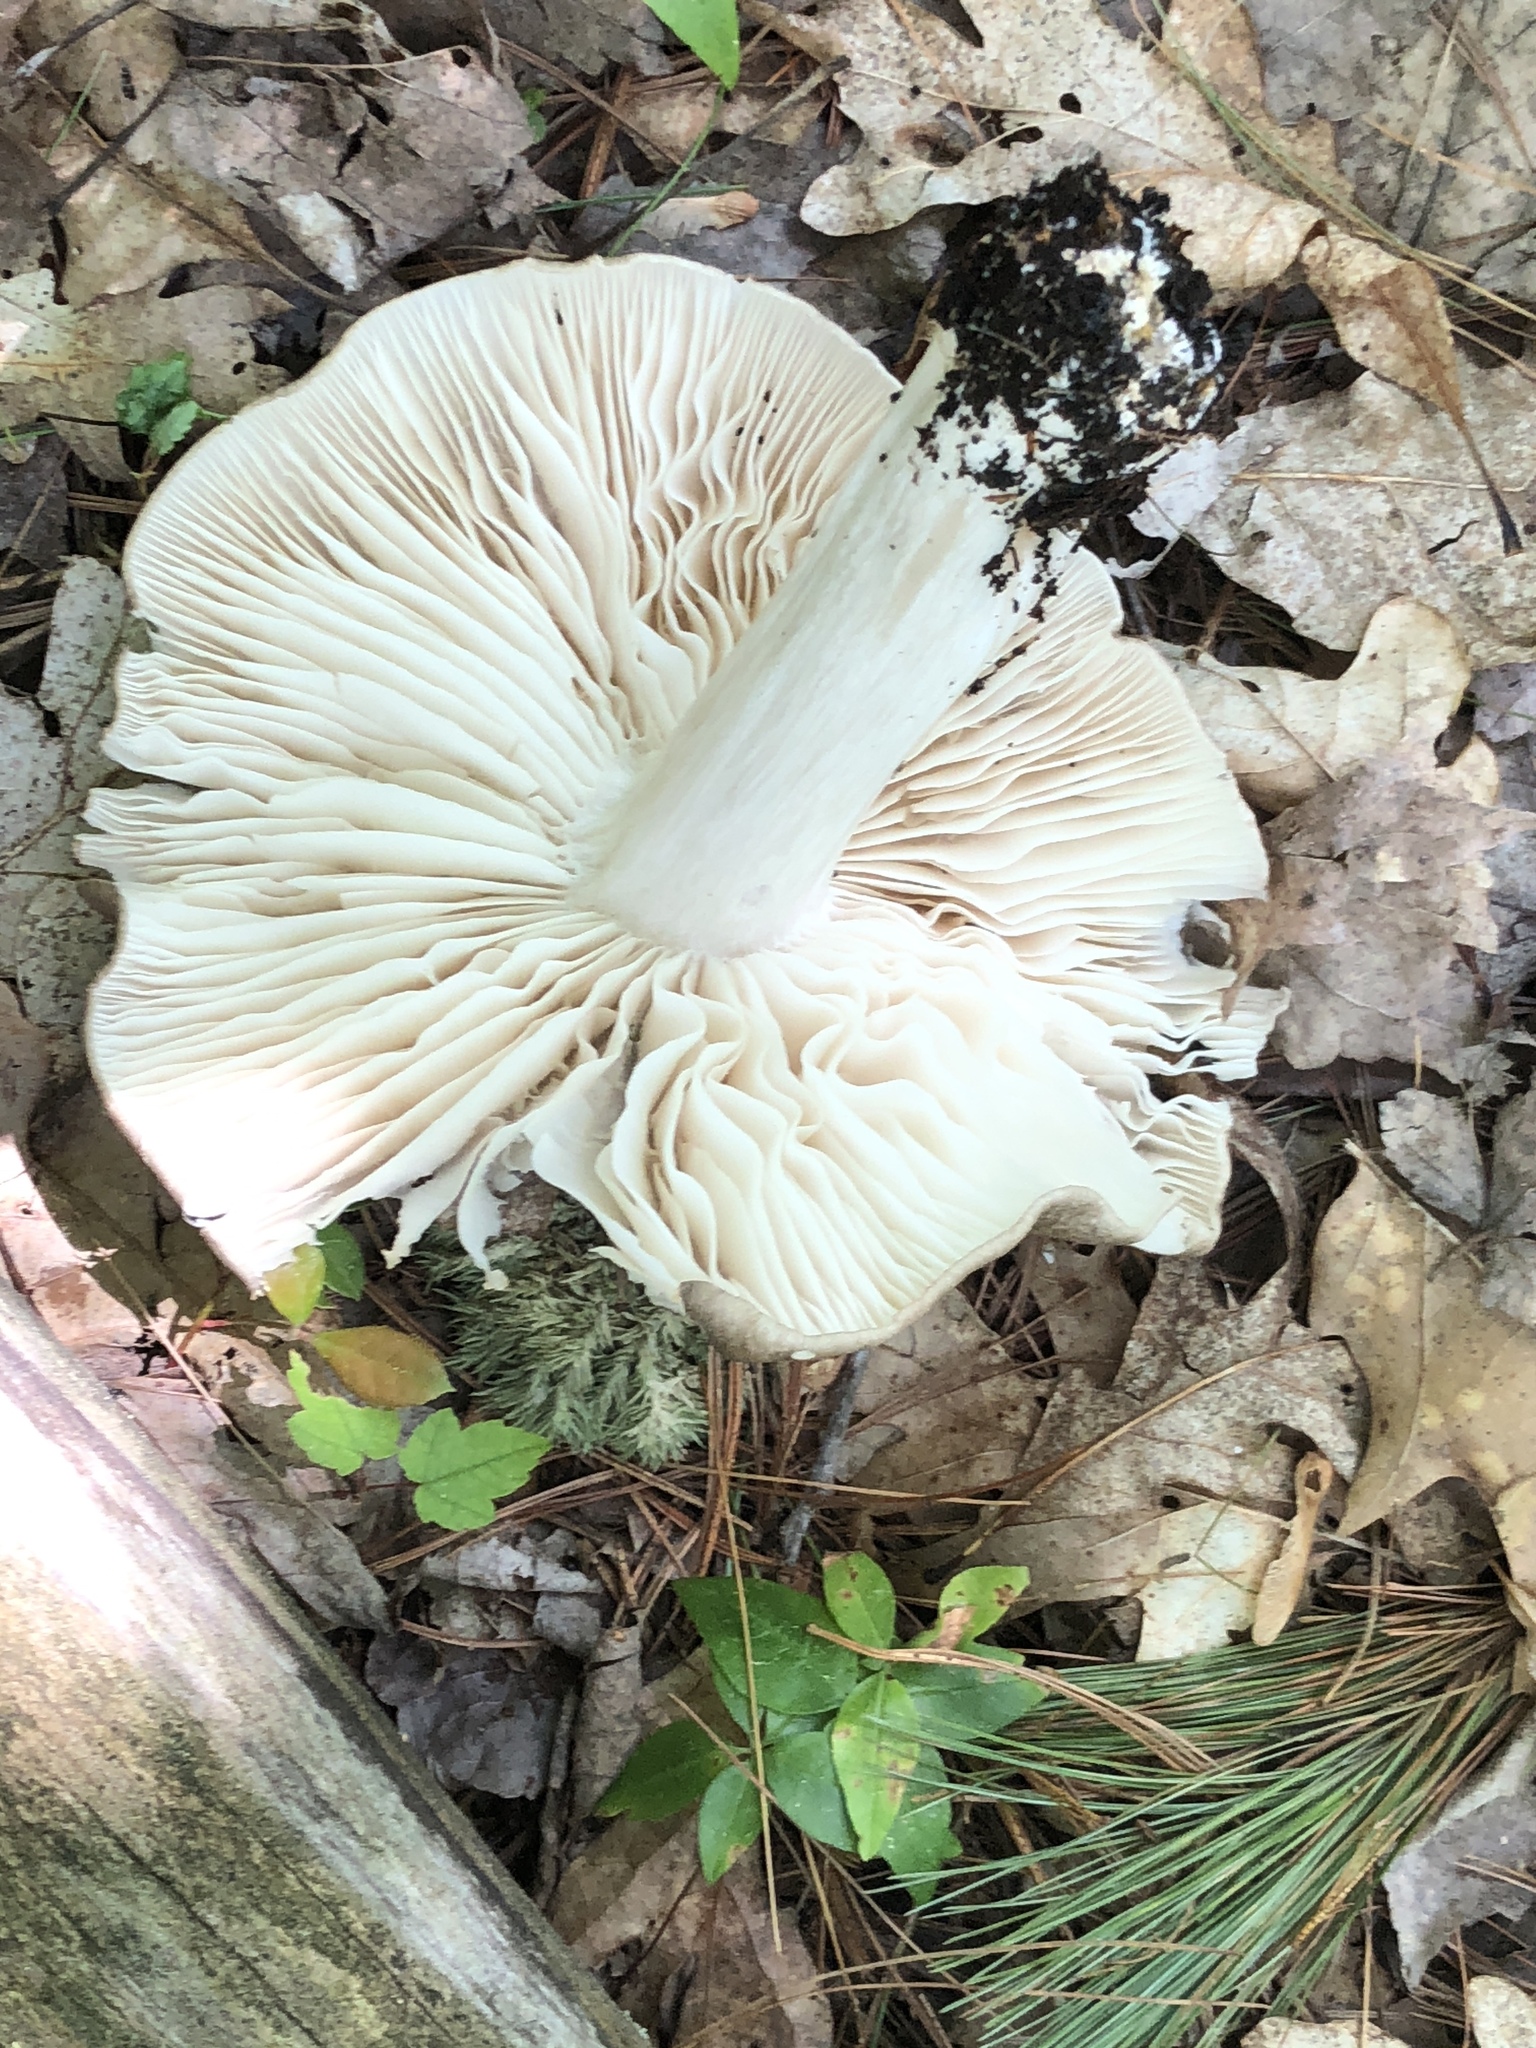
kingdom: Fungi
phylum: Basidiomycota
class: Agaricomycetes
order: Agaricales
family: Tricholomataceae
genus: Megacollybia
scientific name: Megacollybia rodmanii
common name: Eastern american platterful mushroom
